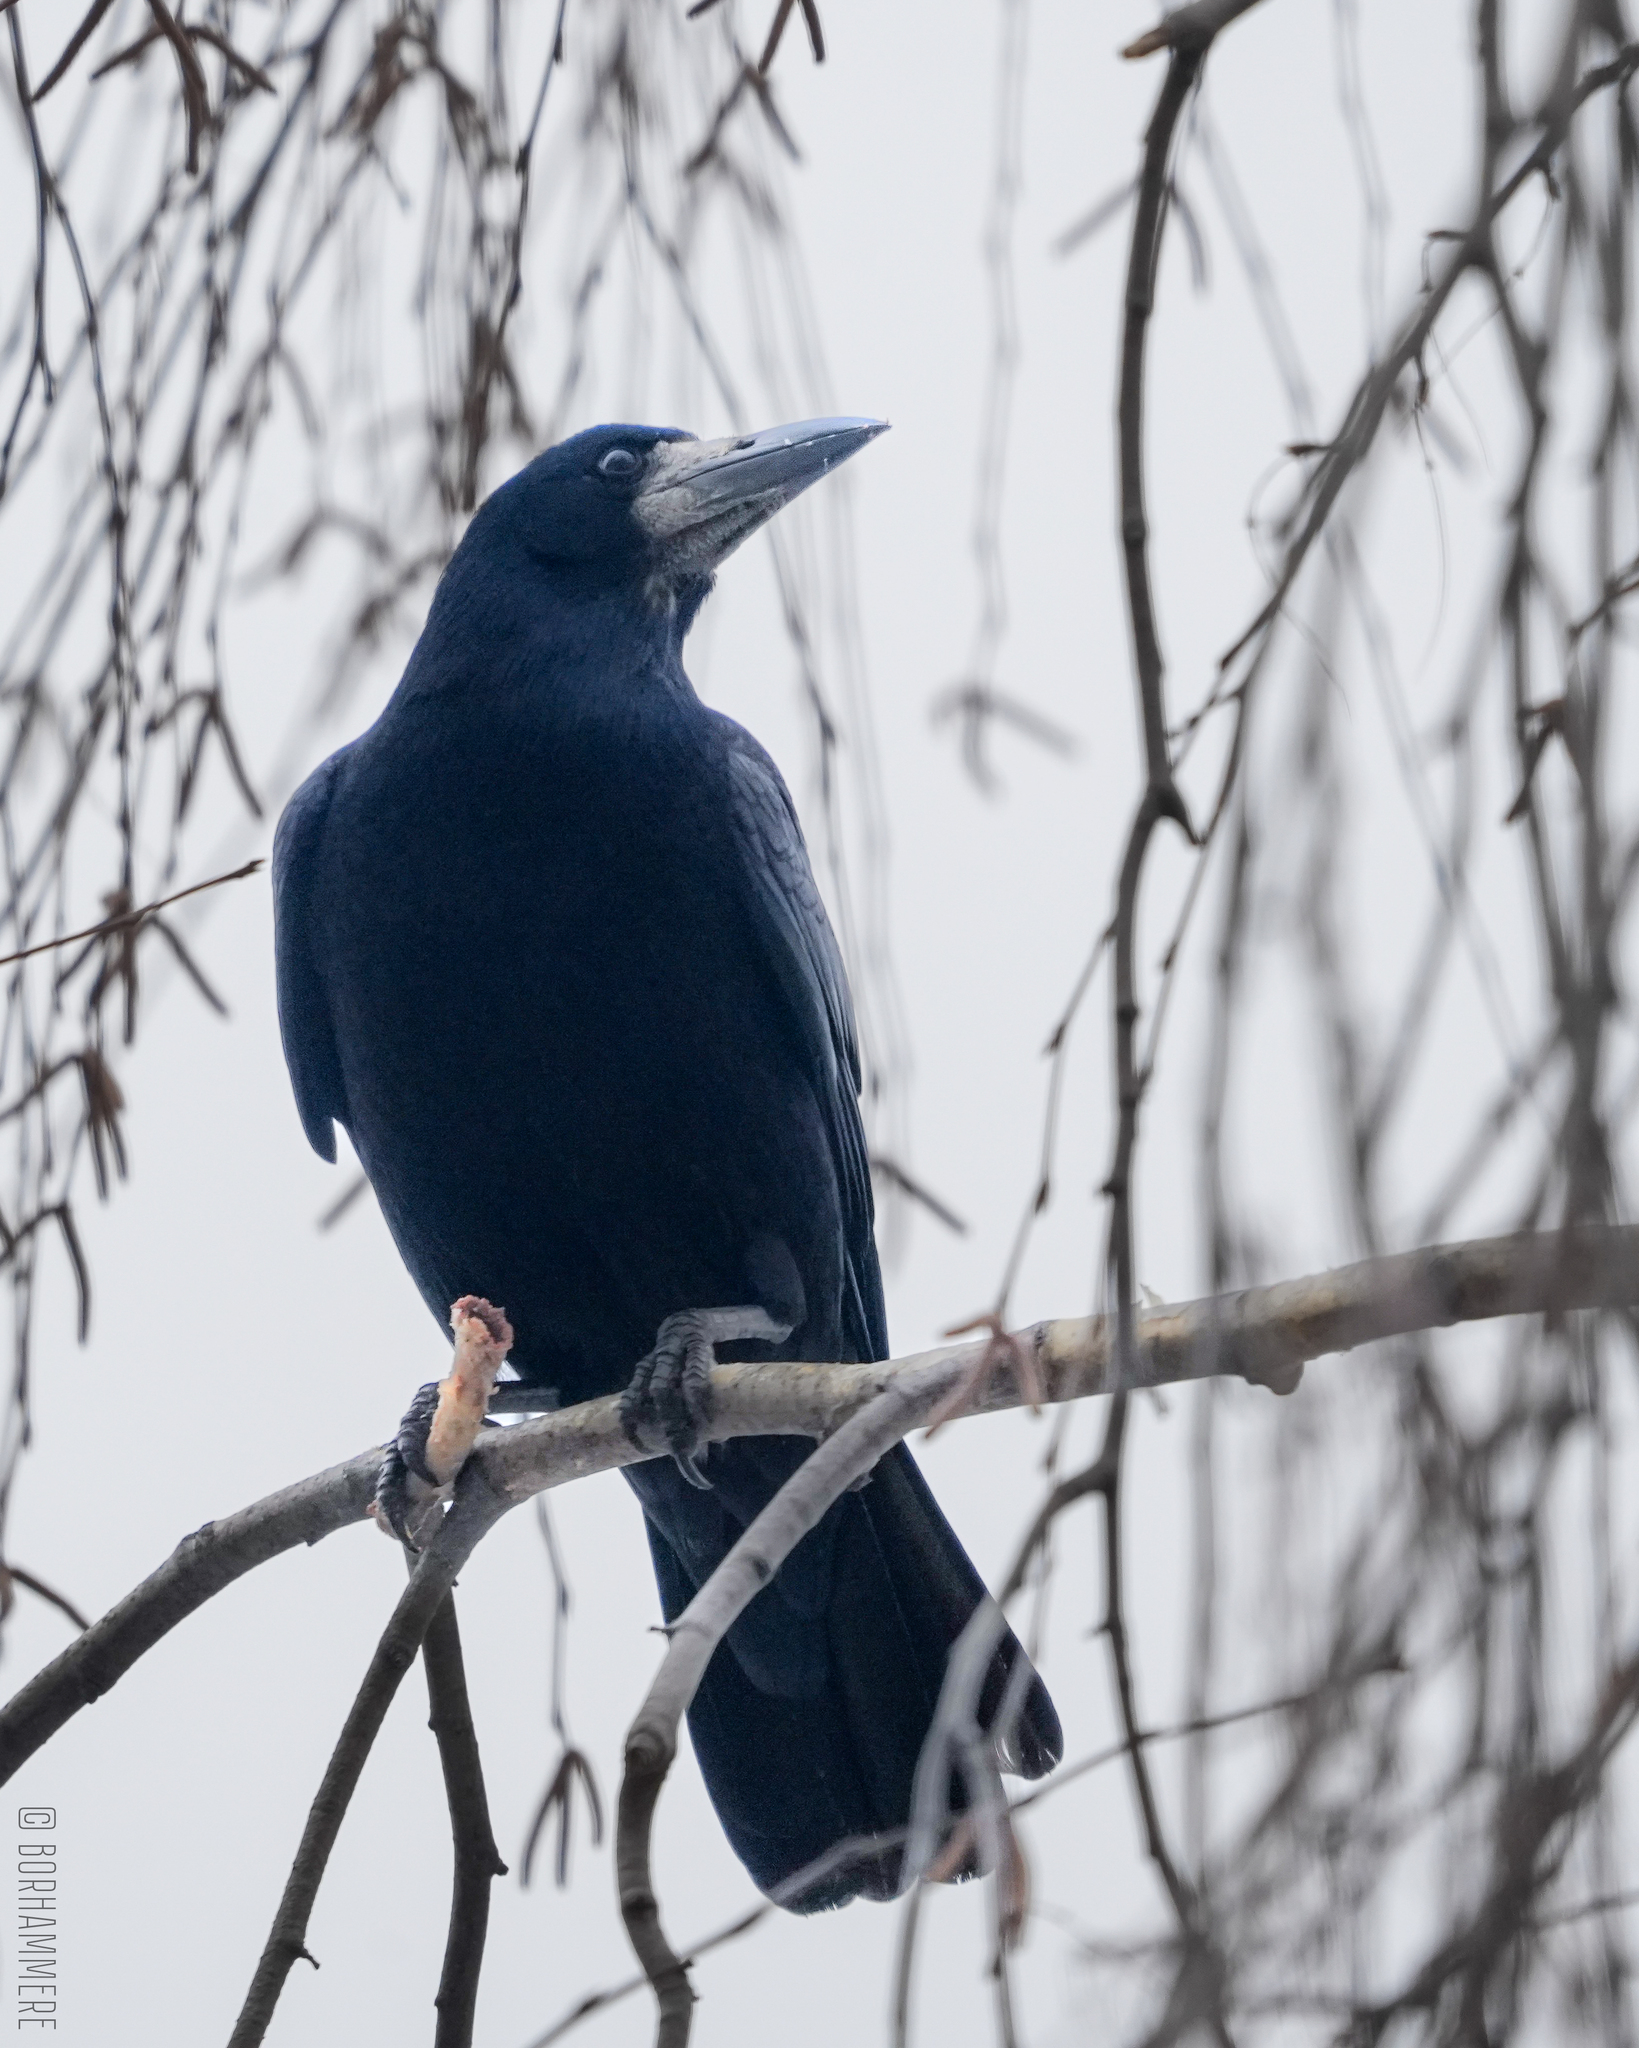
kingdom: Animalia
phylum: Chordata
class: Aves
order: Passeriformes
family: Corvidae
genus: Corvus
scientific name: Corvus frugilegus
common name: Rook
